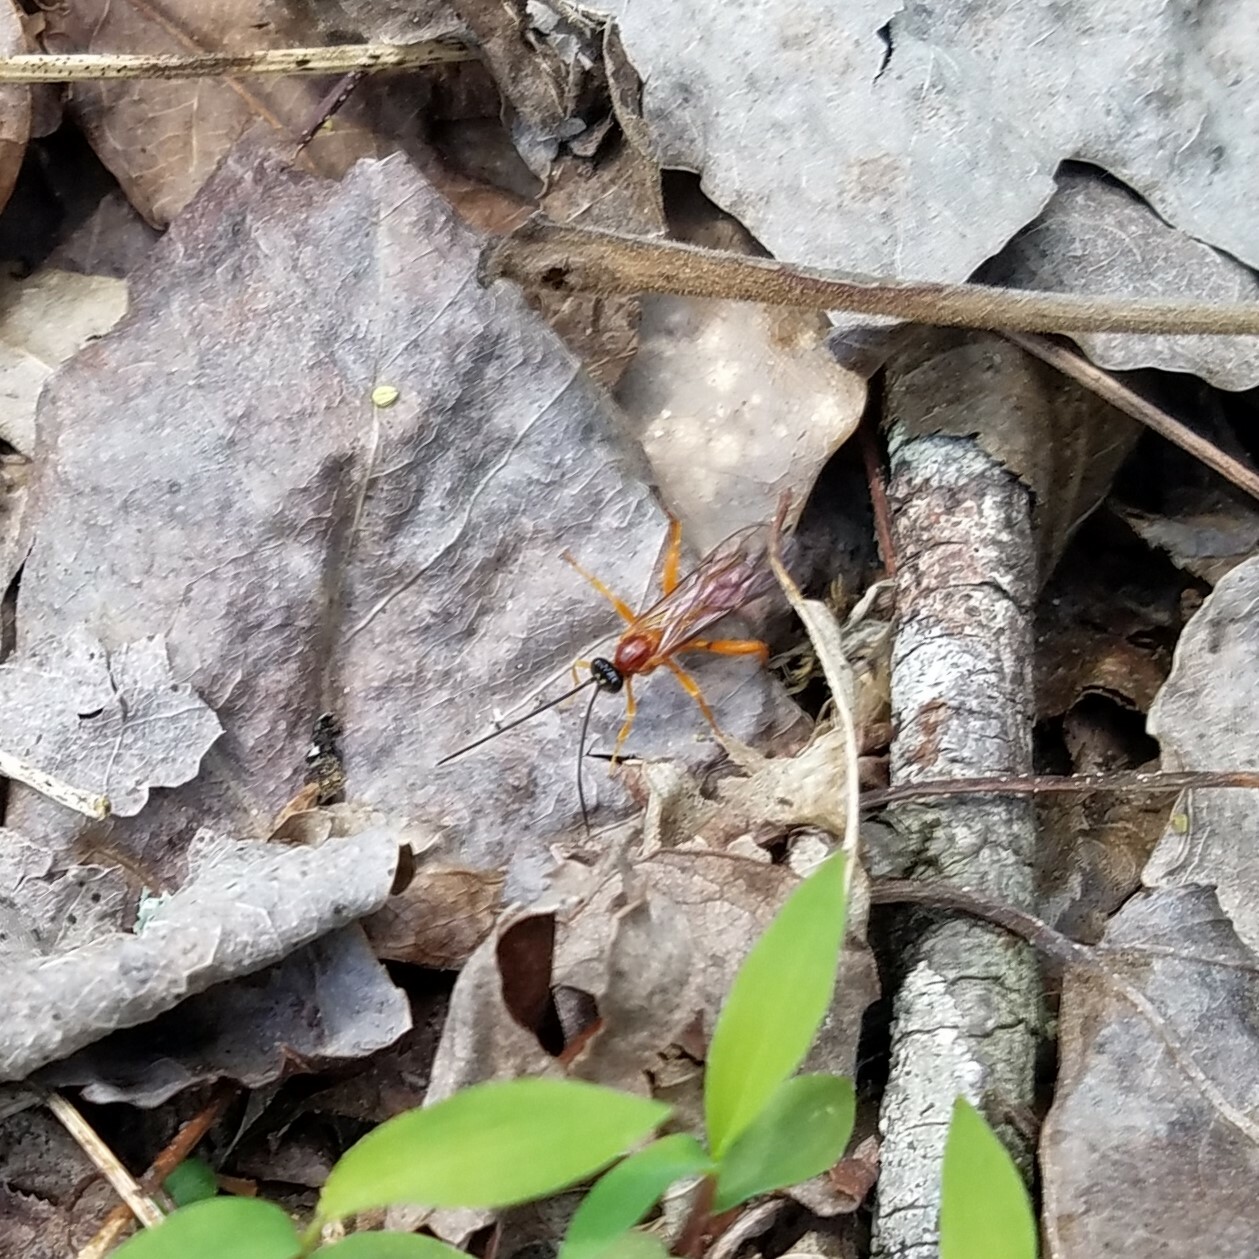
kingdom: Animalia
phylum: Arthropoda
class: Insecta
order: Hymenoptera
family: Ichneumonidae
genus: Theronia
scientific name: Theronia hilaris
